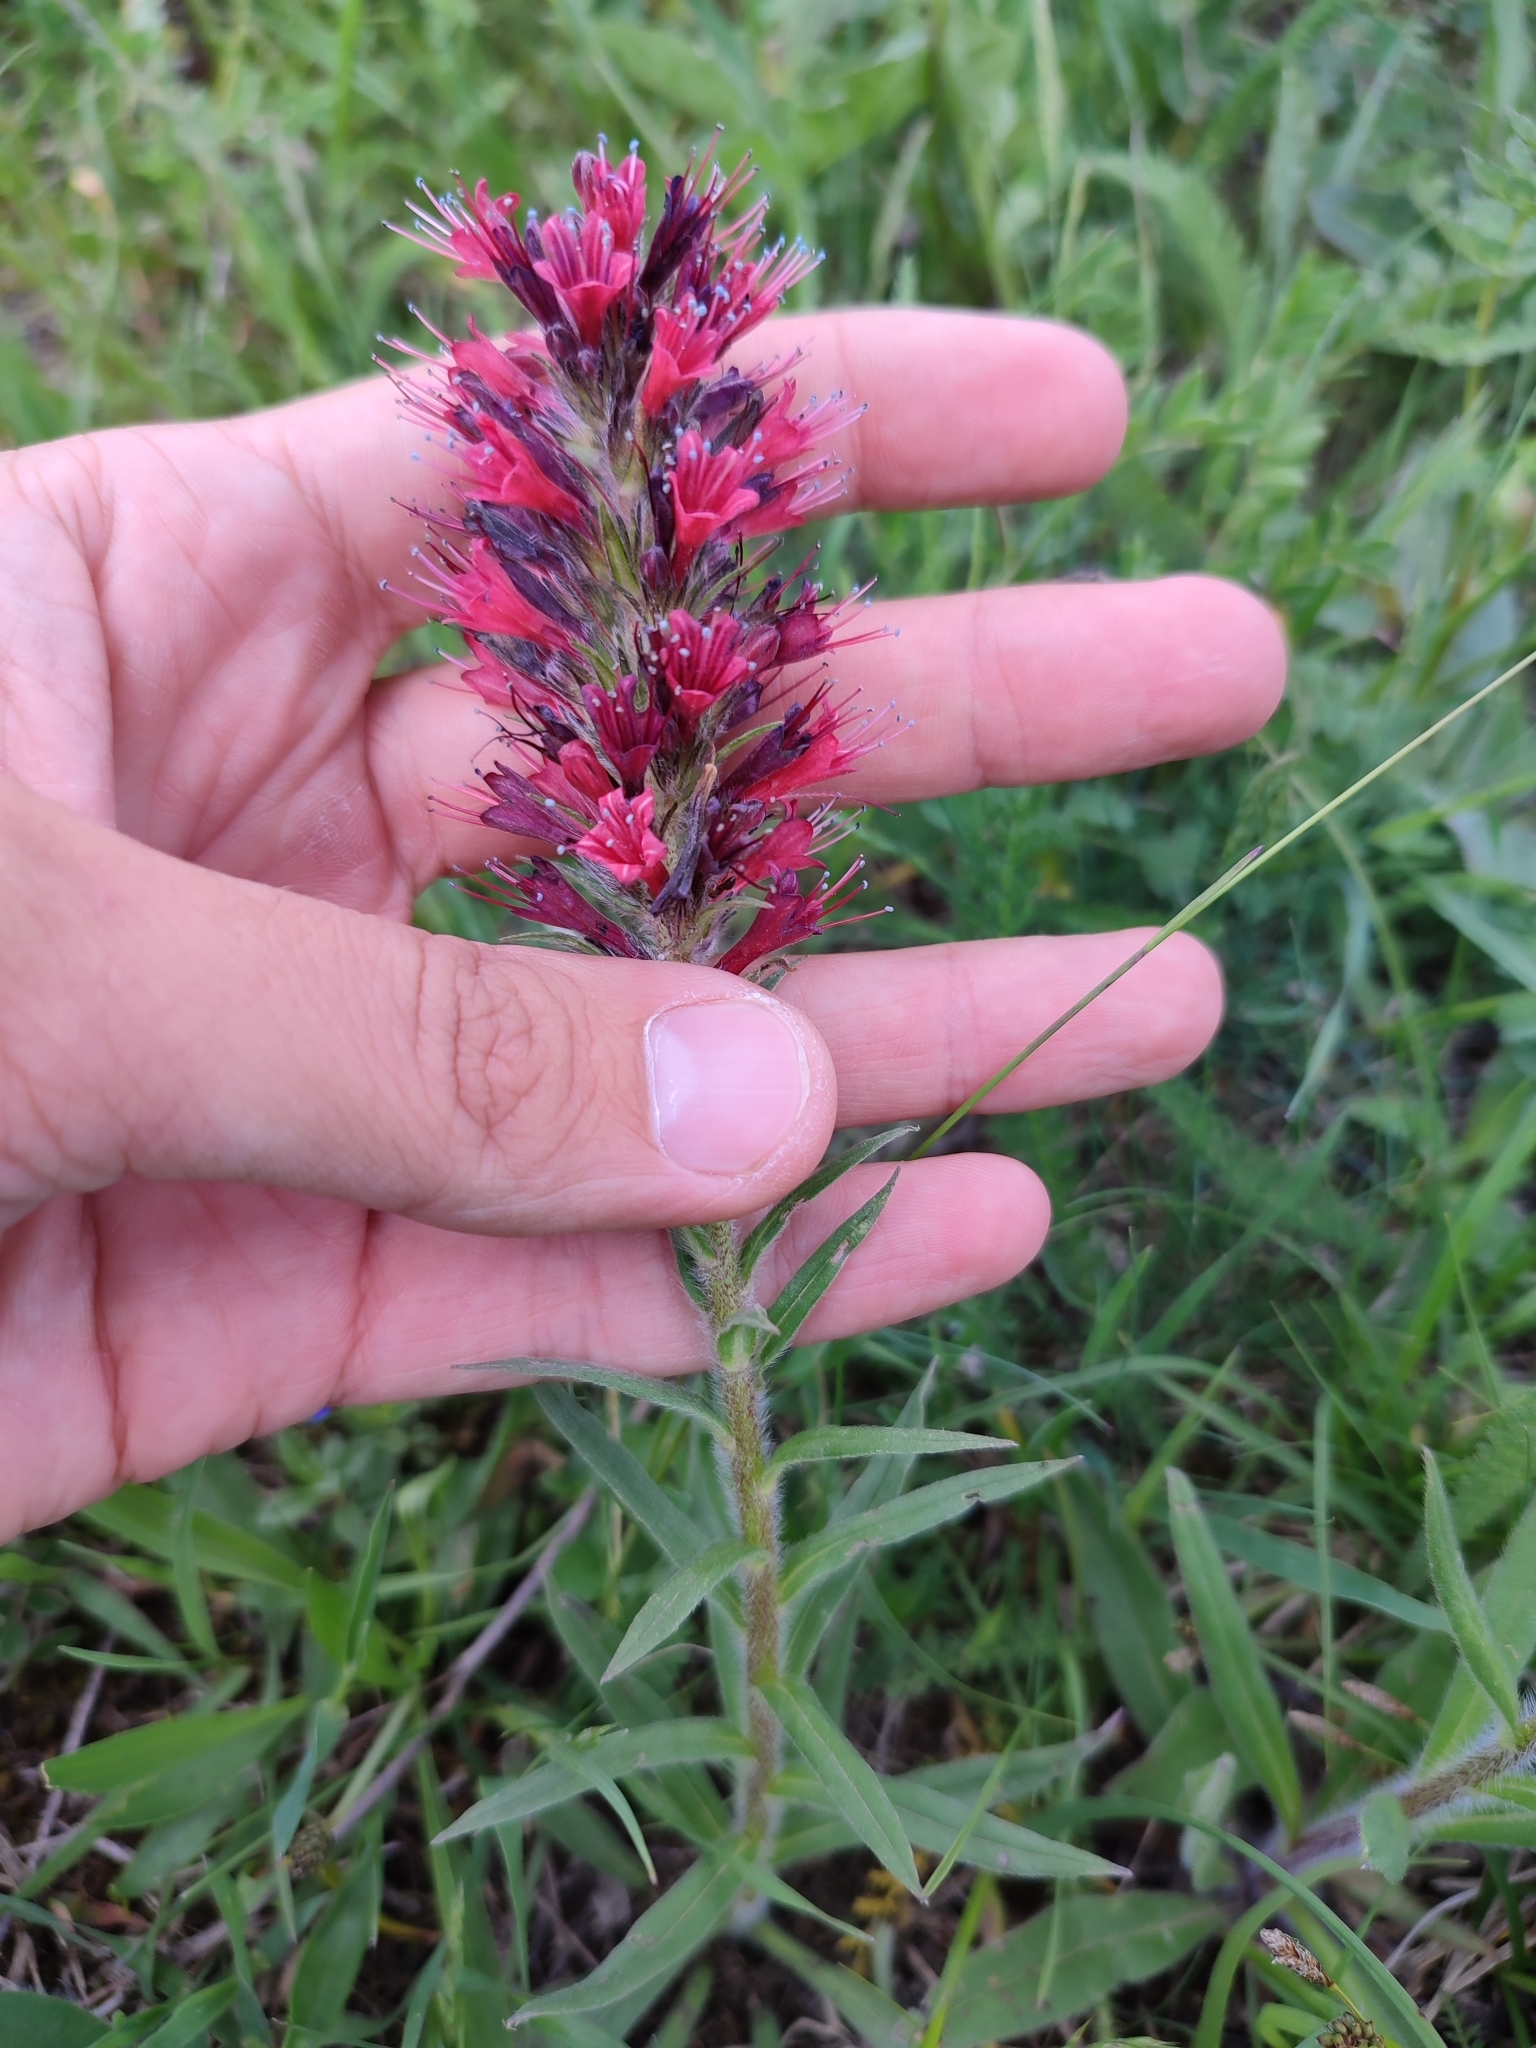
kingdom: Plantae
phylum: Tracheophyta
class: Magnoliopsida
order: Boraginales
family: Boraginaceae
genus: Pontechium
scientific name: Pontechium maculatum
